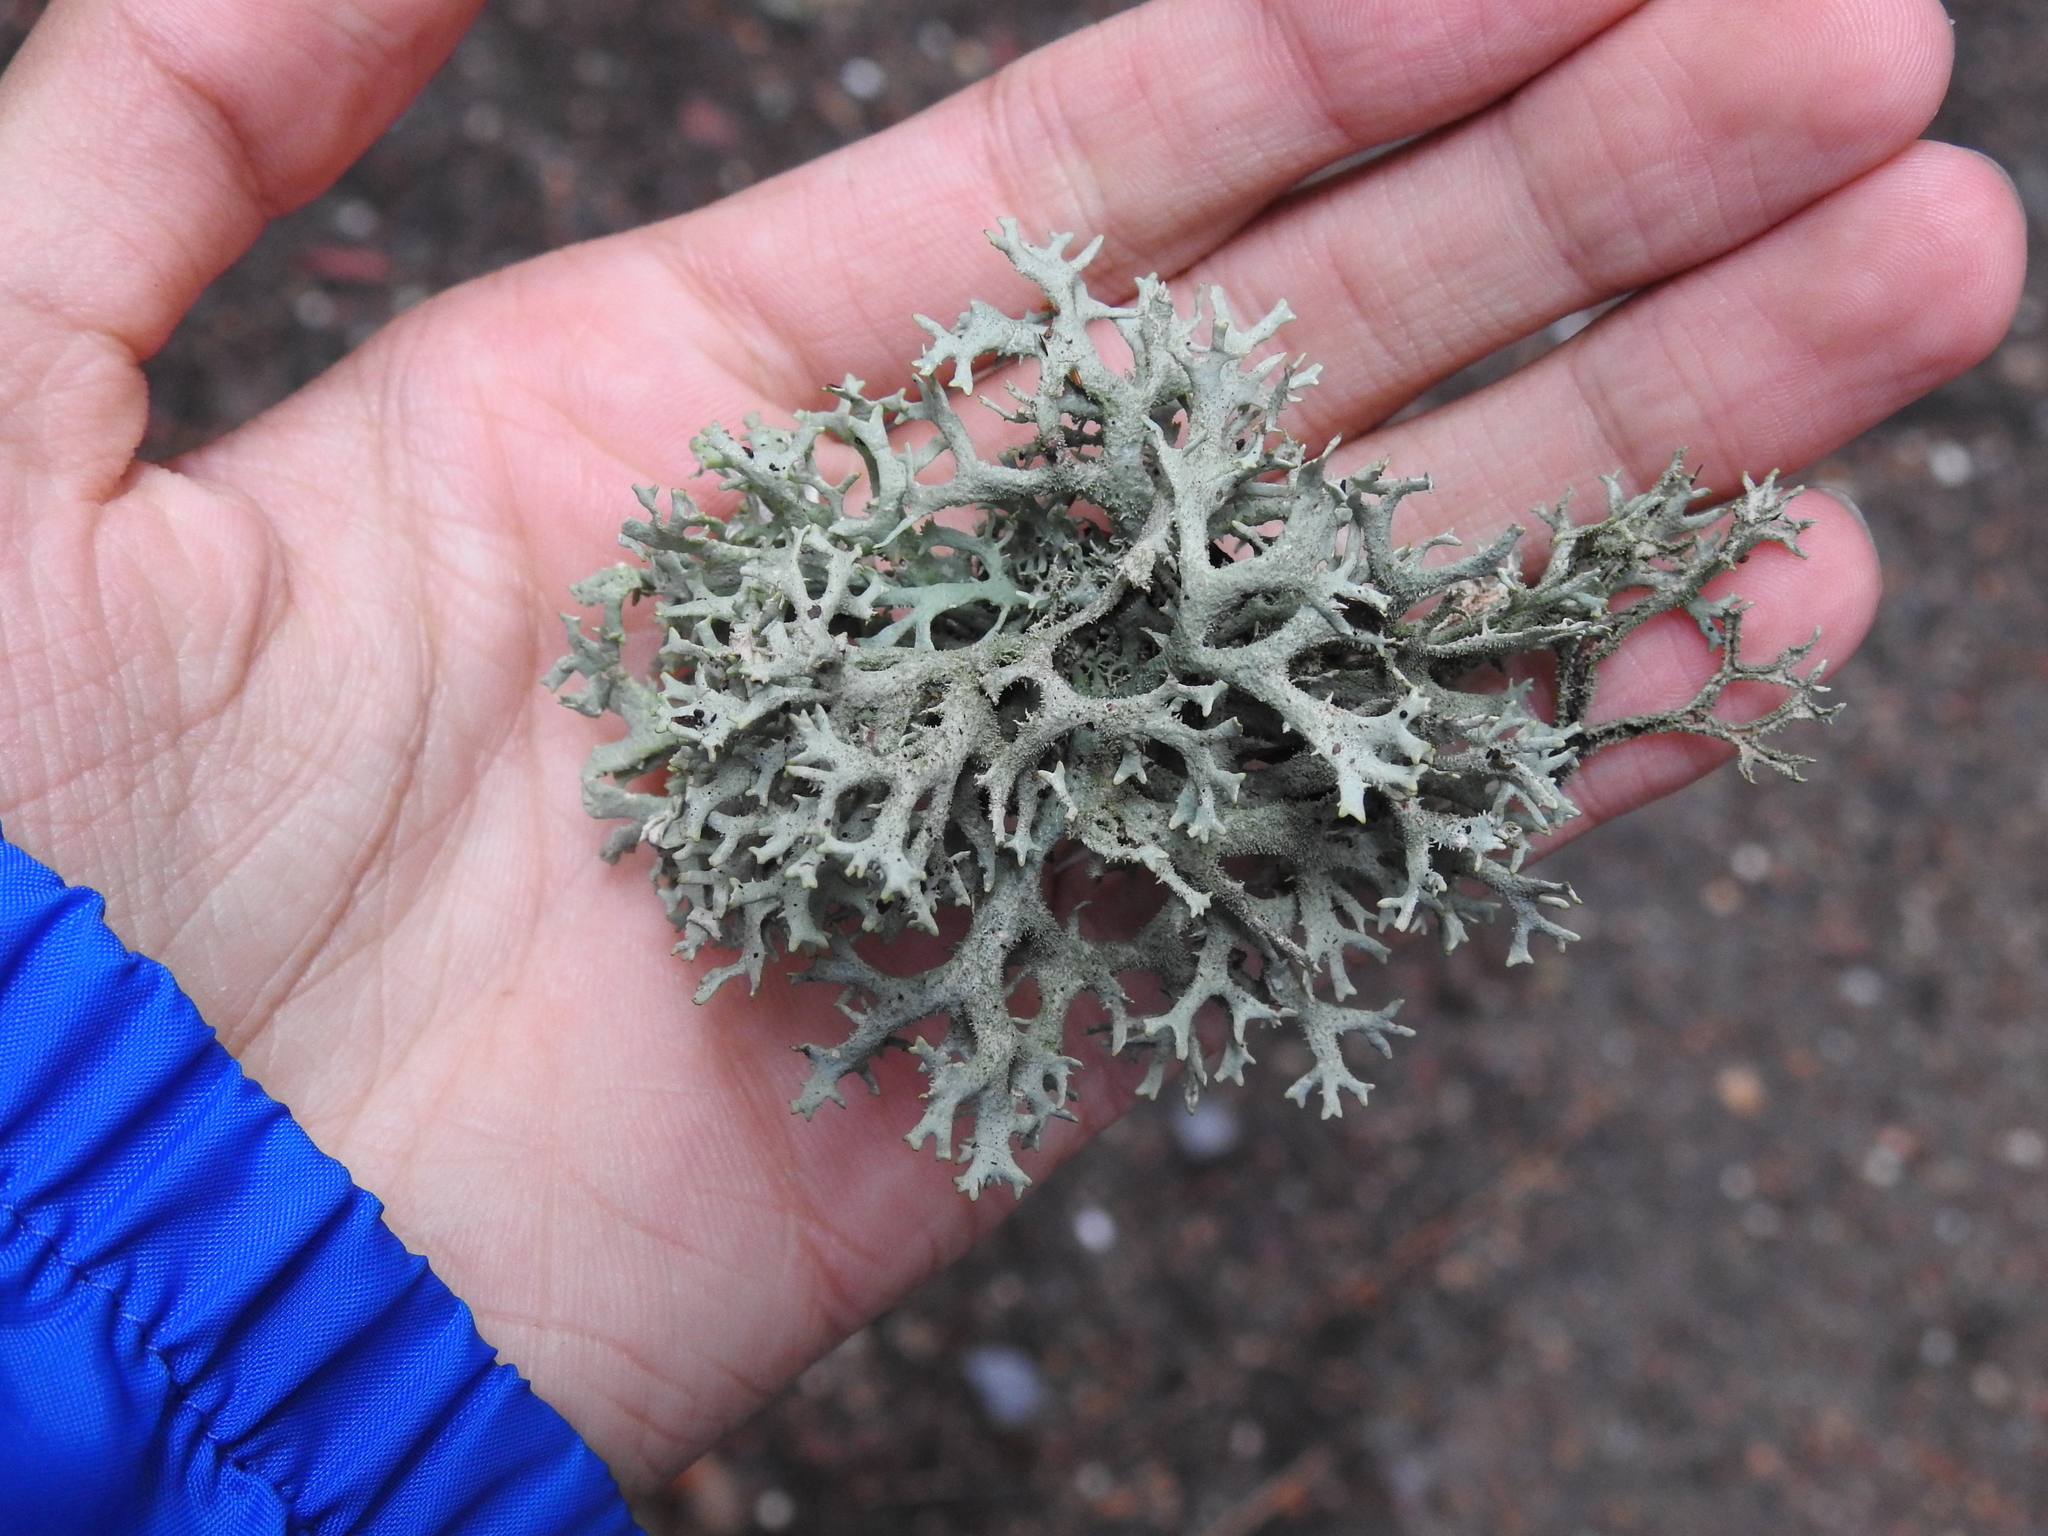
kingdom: Fungi
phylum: Ascomycota
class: Lecanoromycetes
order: Lecanorales
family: Parmeliaceae
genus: Pseudevernia
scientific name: Pseudevernia furfuracea
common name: Tree moss
